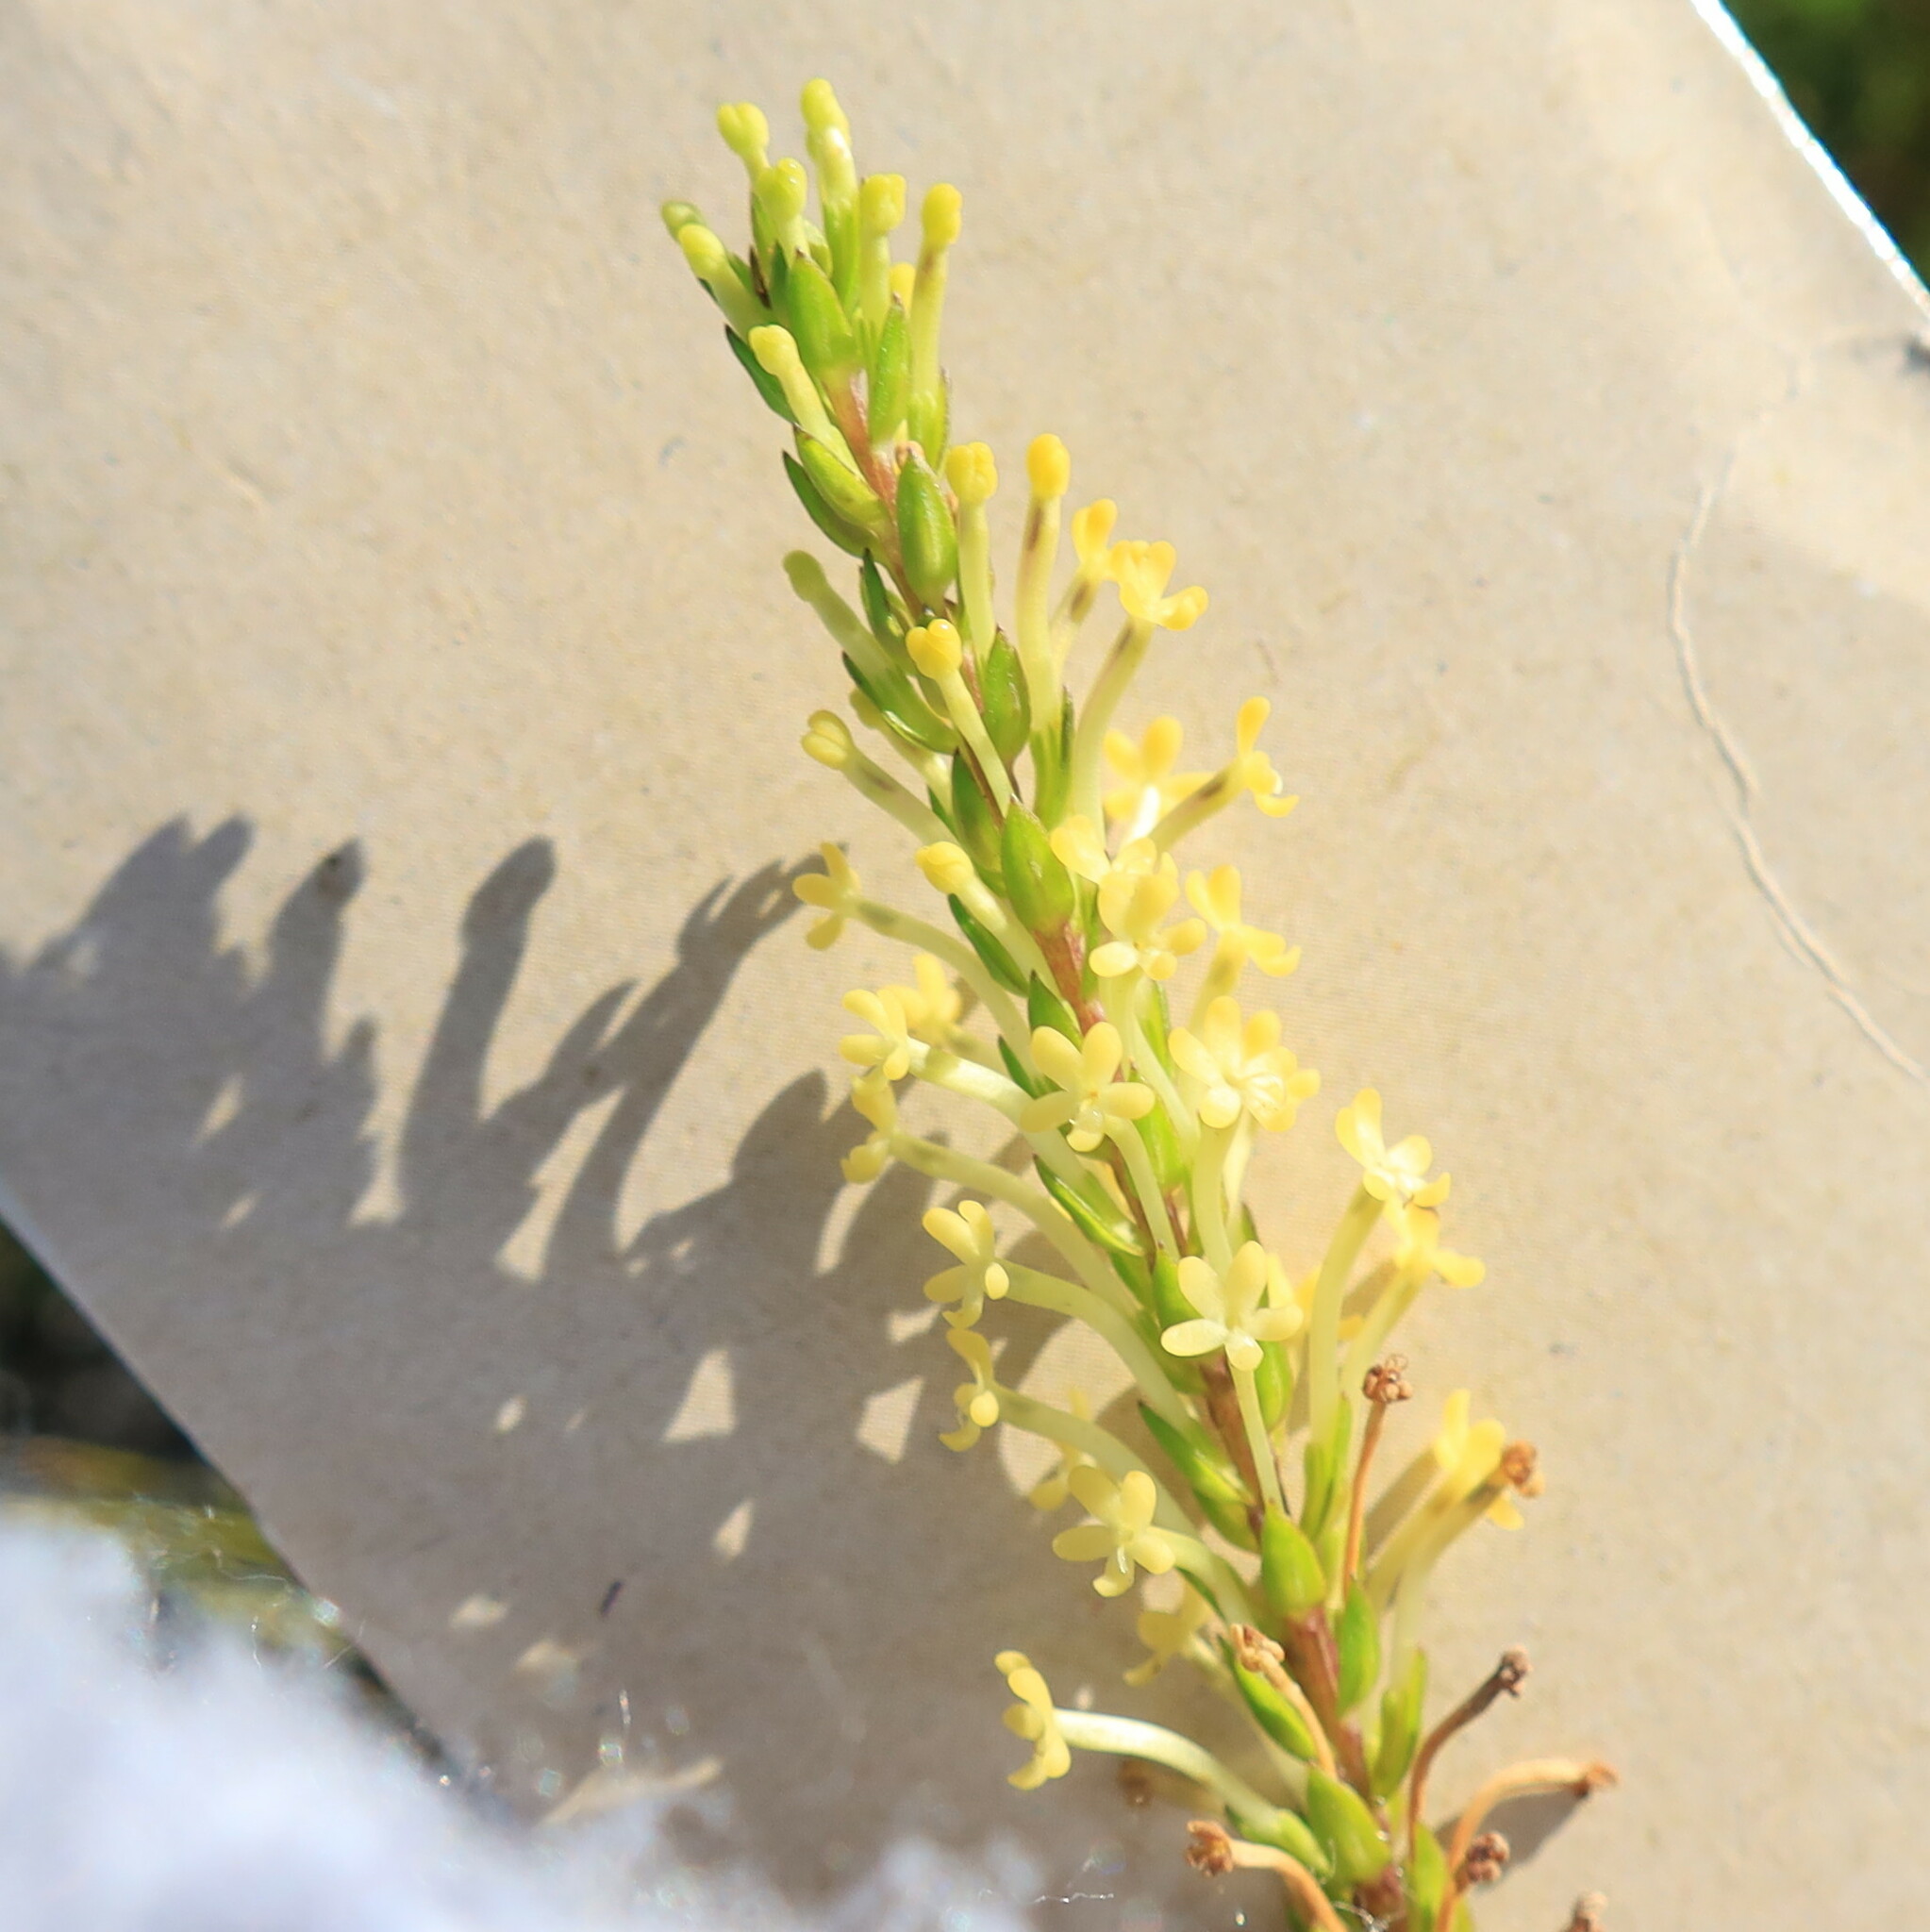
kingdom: Plantae
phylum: Tracheophyta
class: Magnoliopsida
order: Lamiales
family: Scrophulariaceae
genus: Microdon
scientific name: Microdon dubius
